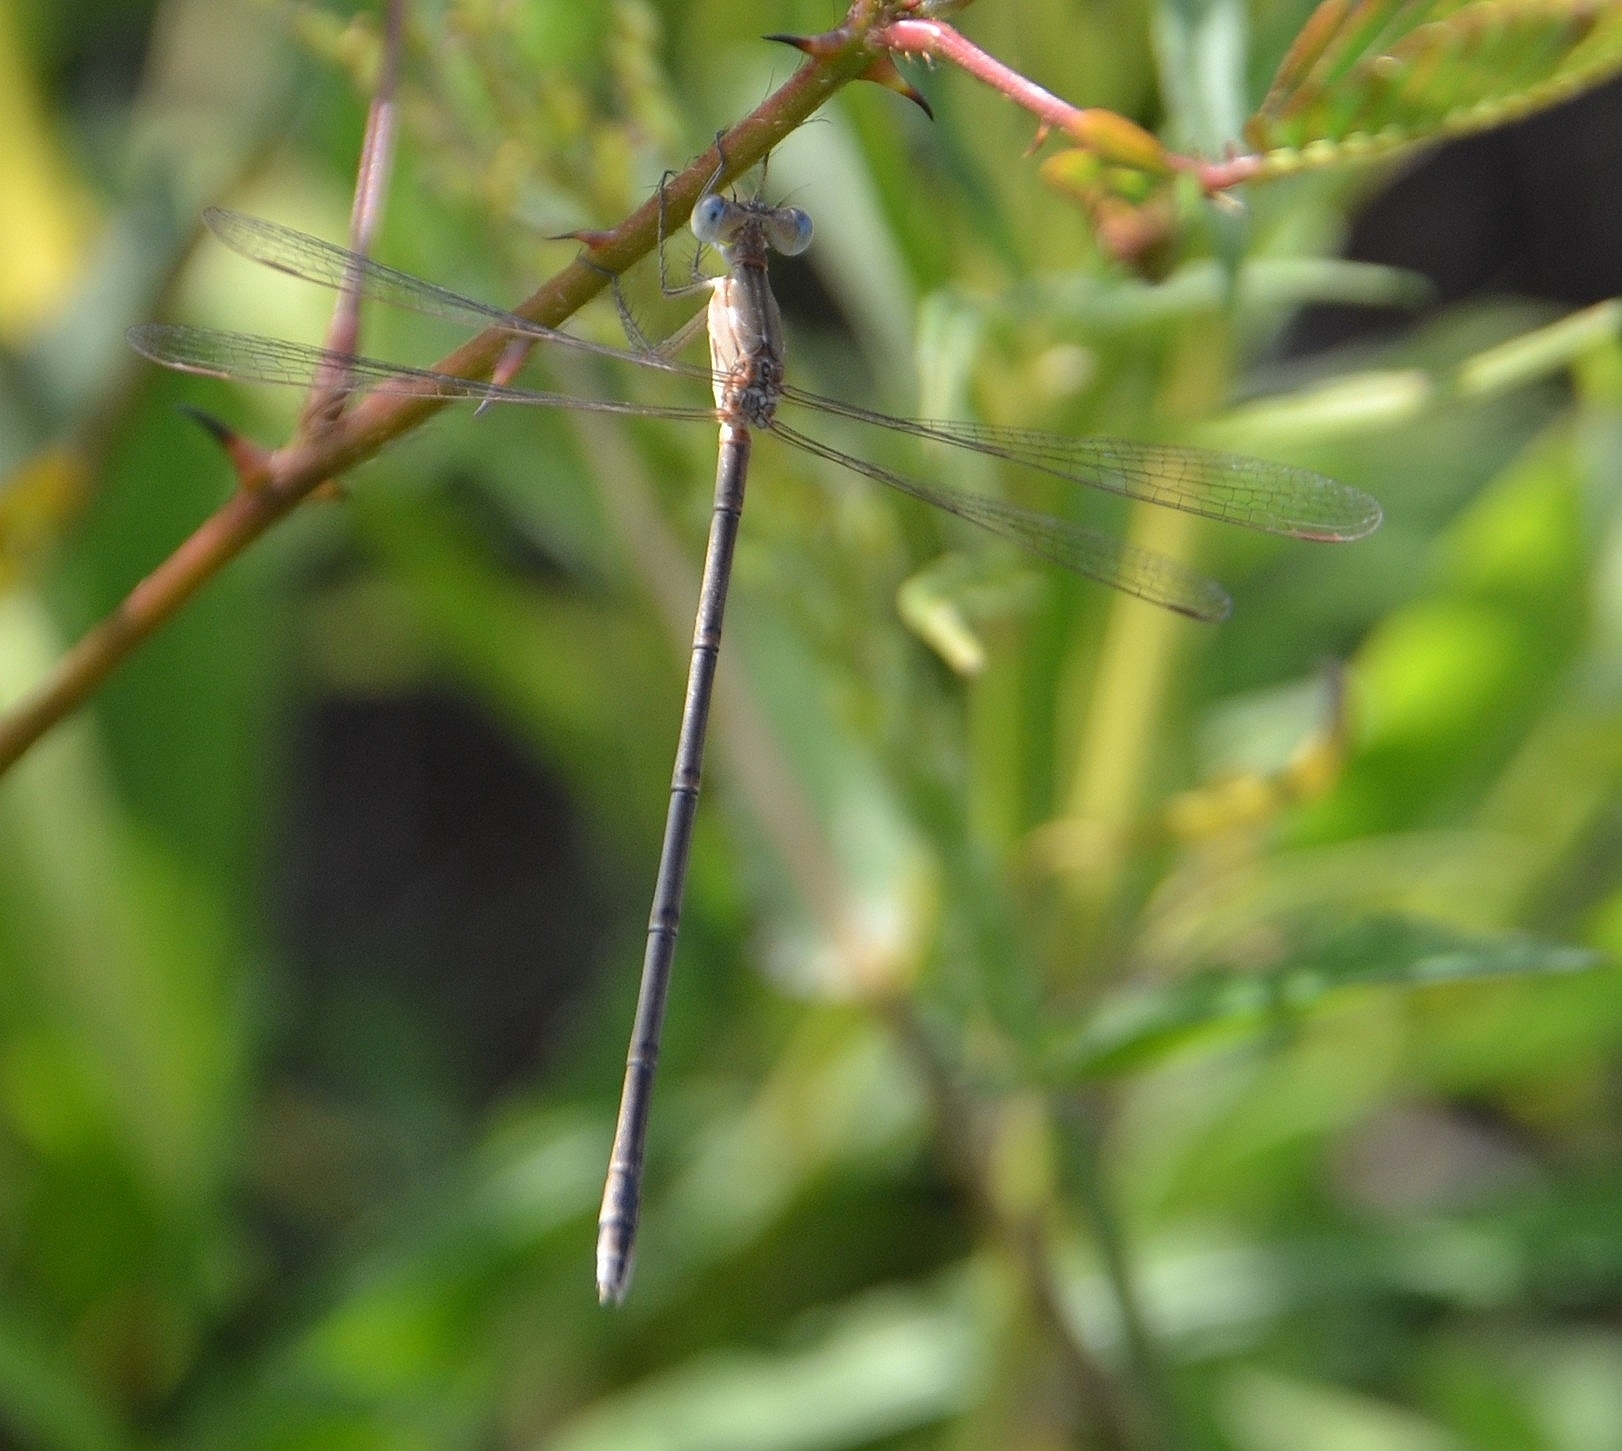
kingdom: Animalia
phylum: Arthropoda
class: Insecta
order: Odonata
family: Lestidae
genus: Lestes
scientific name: Lestes concinnus
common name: Dusky spreadwing
